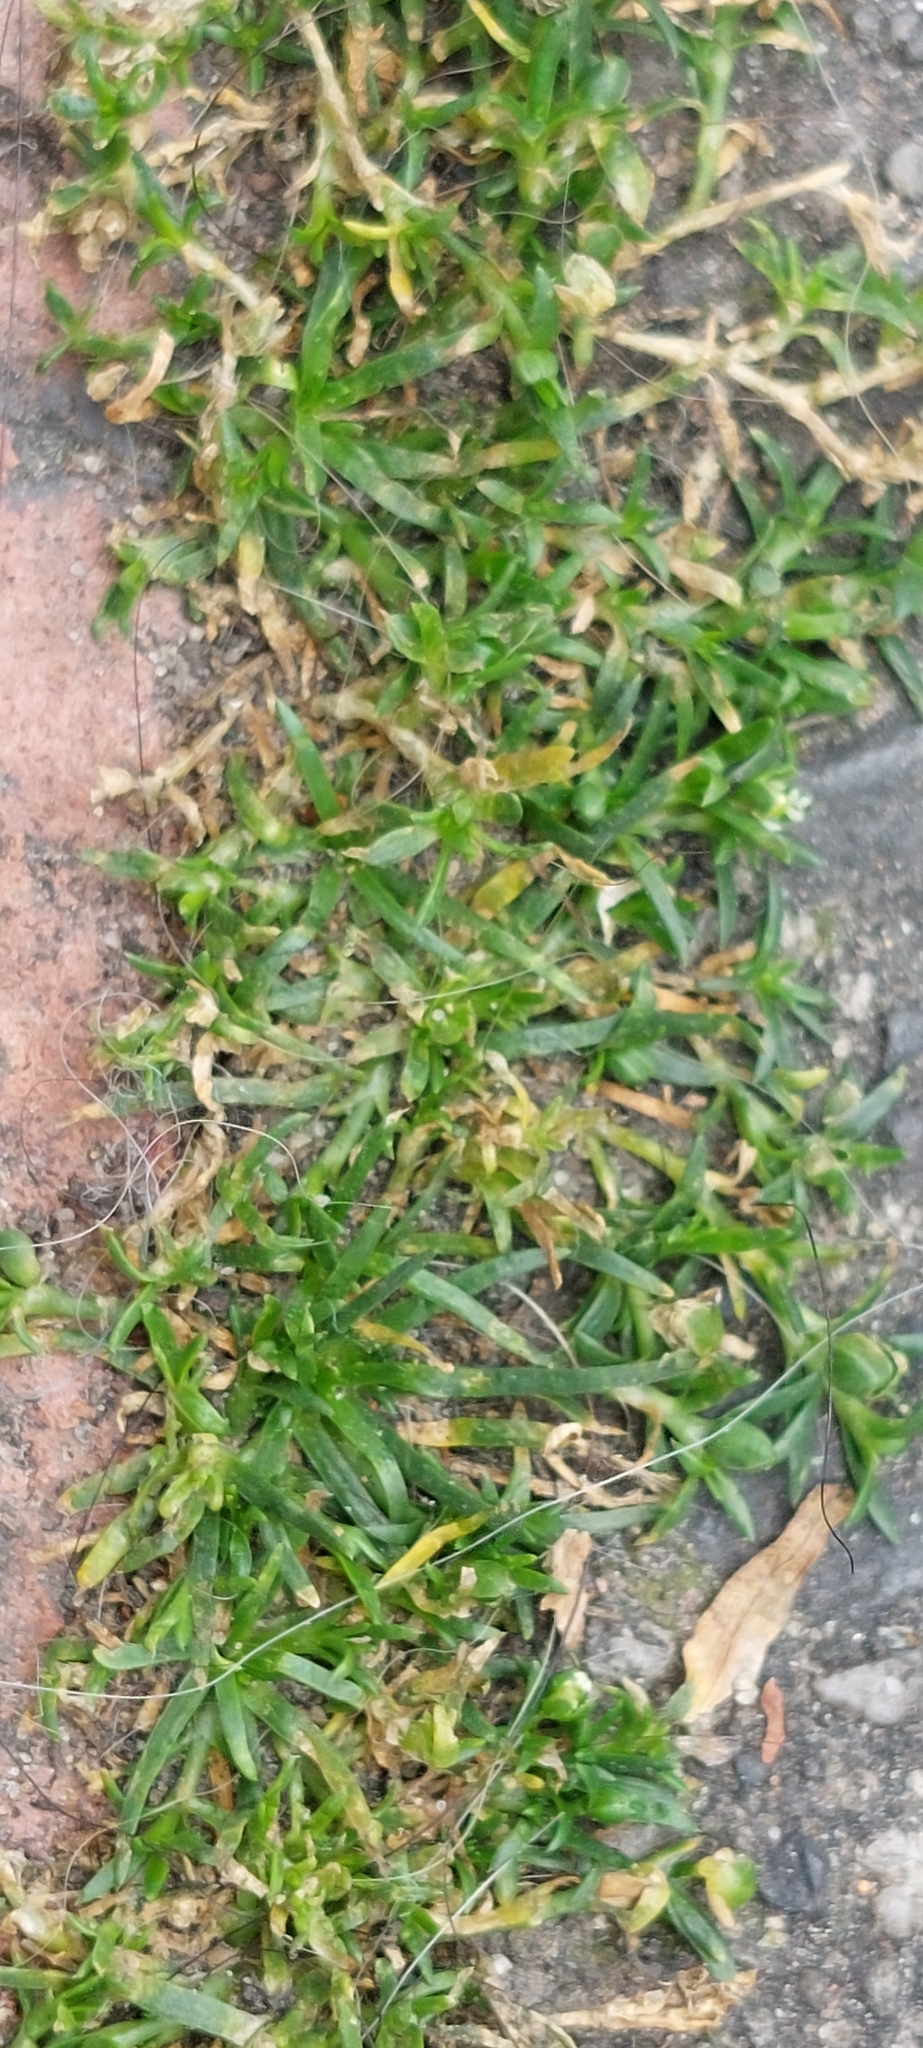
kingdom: Plantae
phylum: Tracheophyta
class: Magnoliopsida
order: Caryophyllales
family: Caryophyllaceae
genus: Sagina
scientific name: Sagina procumbens
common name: Procumbent pearlwort
